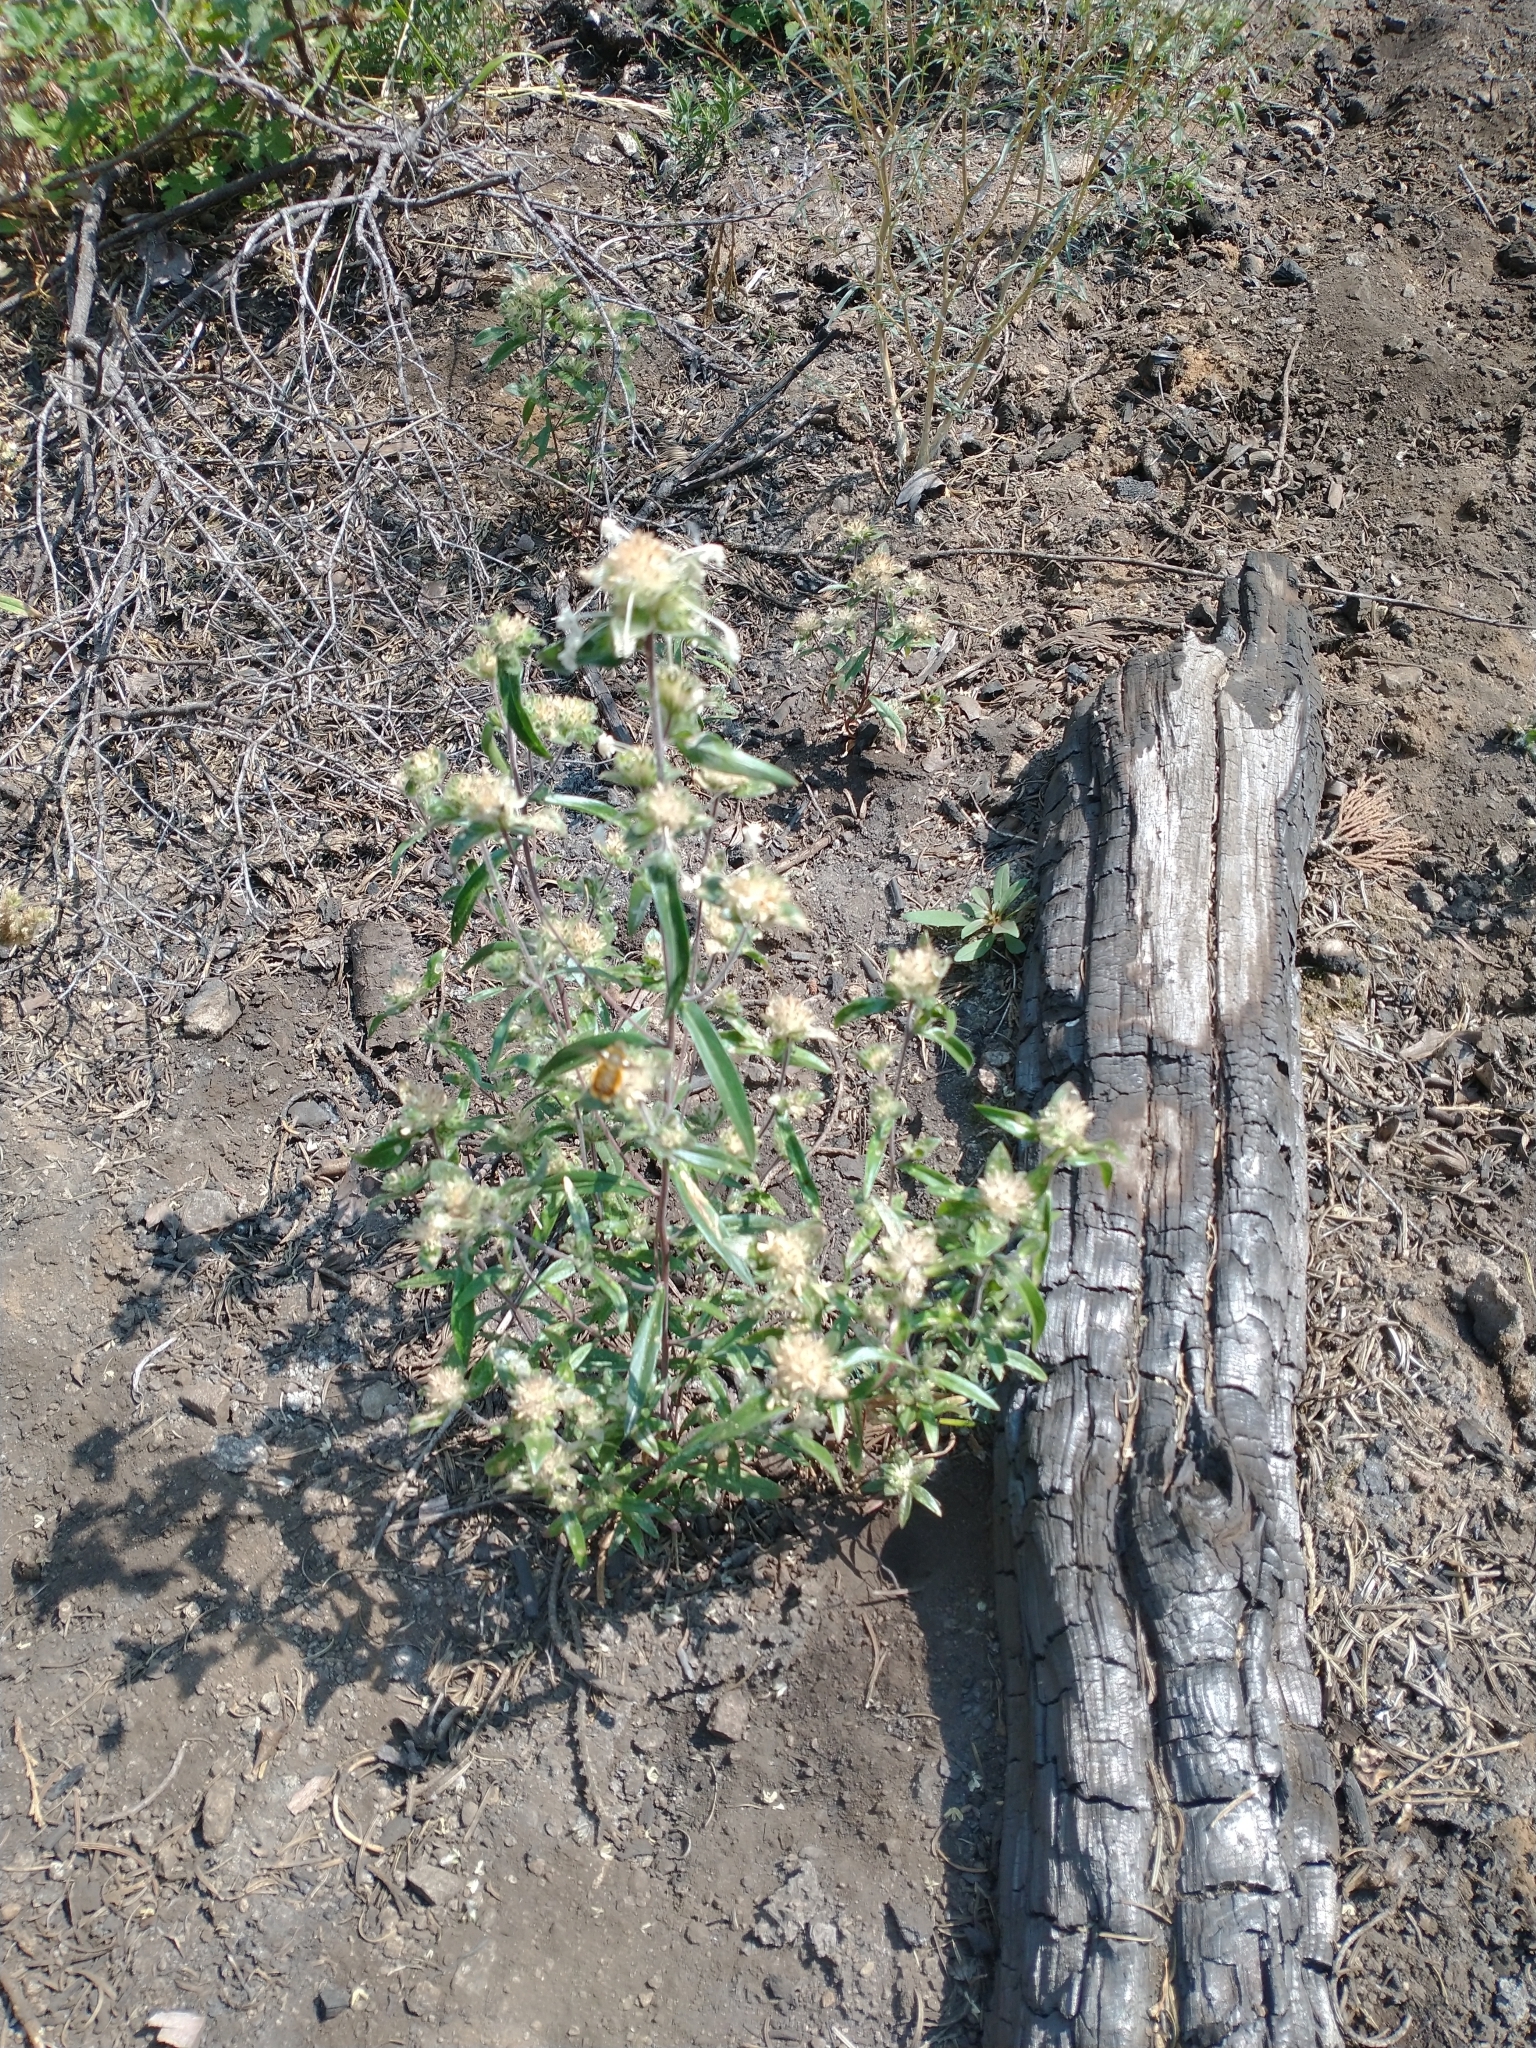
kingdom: Plantae
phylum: Tracheophyta
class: Magnoliopsida
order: Ericales
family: Polemoniaceae
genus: Collomia
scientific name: Collomia grandiflora
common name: California strawflower
